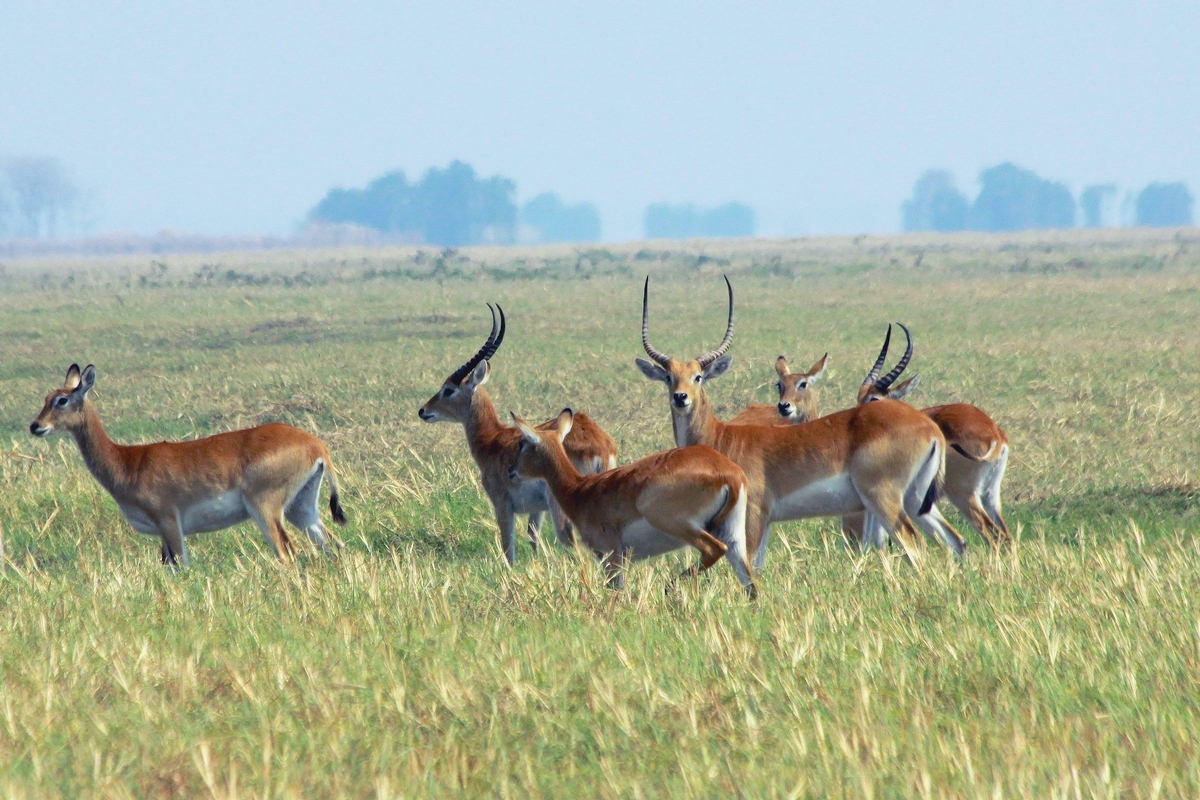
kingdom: Animalia
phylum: Chordata
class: Mammalia
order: Artiodactyla
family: Bovidae
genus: Kobus
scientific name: Kobus leche
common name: Lechwe
